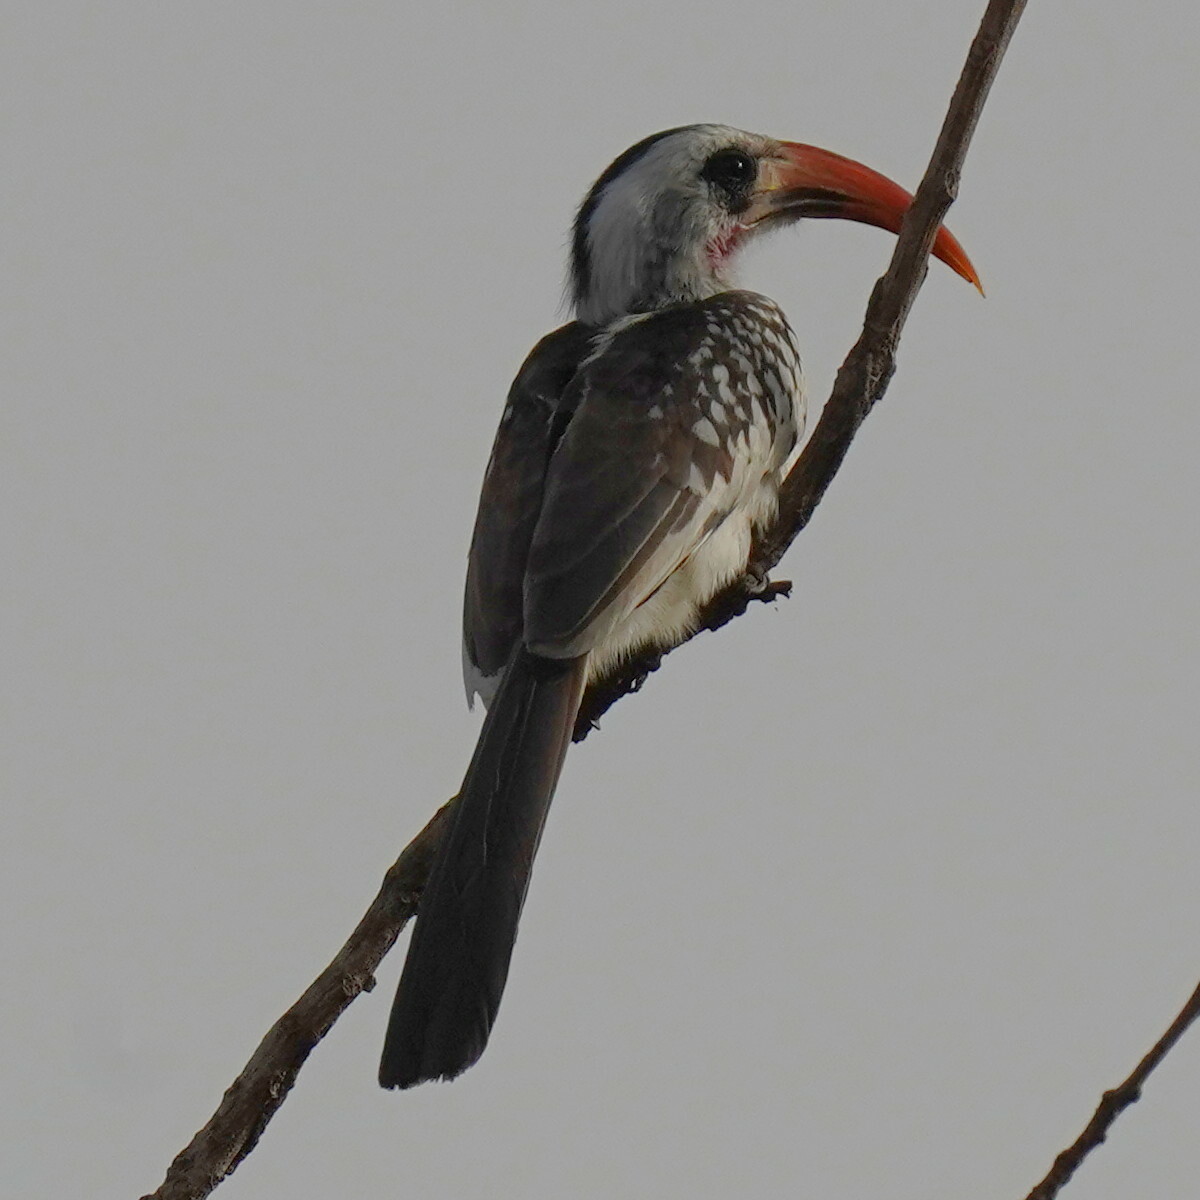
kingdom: Animalia
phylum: Chordata
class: Aves
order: Bucerotiformes
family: Bucerotidae
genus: Tockus
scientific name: Tockus kempi
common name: Western red-billed hornbill
